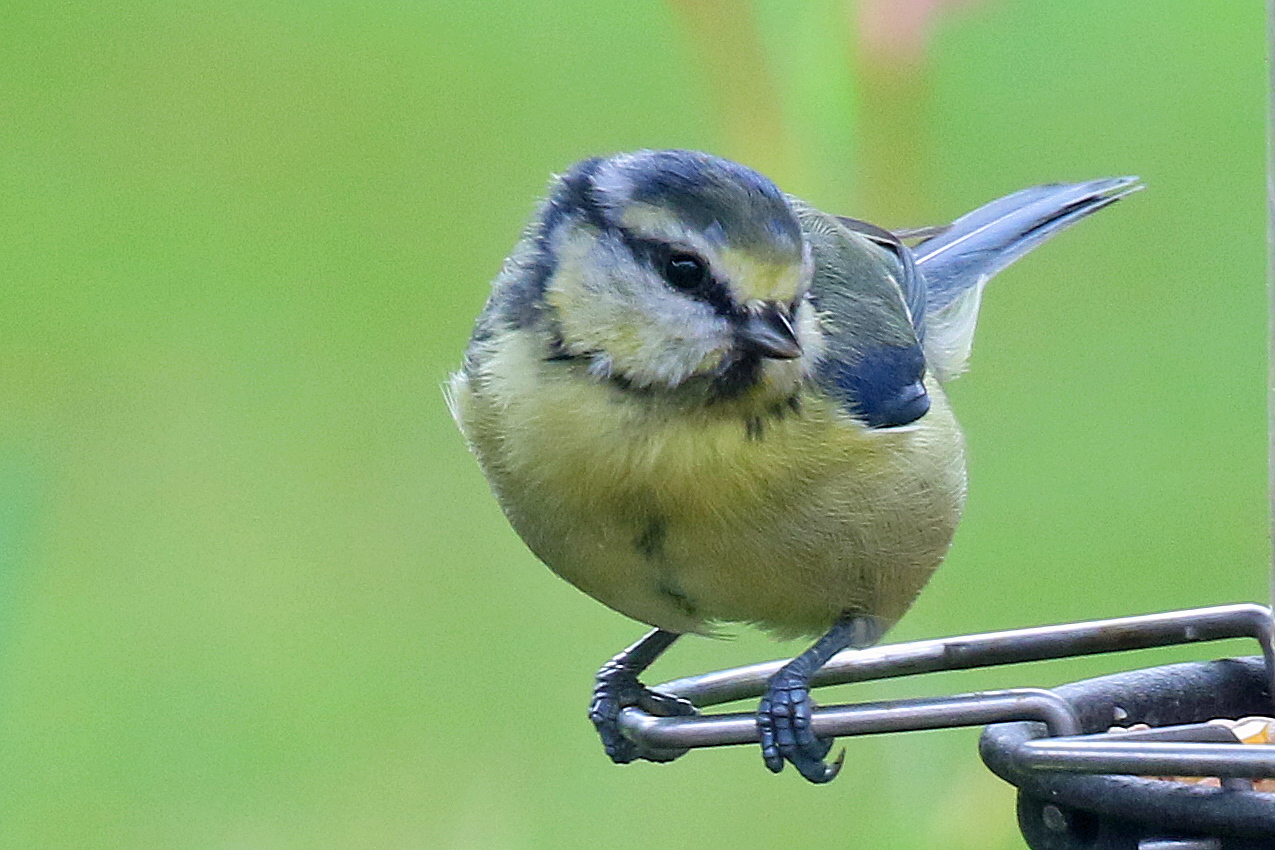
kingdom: Animalia
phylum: Chordata
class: Aves
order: Passeriformes
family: Paridae
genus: Cyanistes
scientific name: Cyanistes caeruleus
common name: Eurasian blue tit
